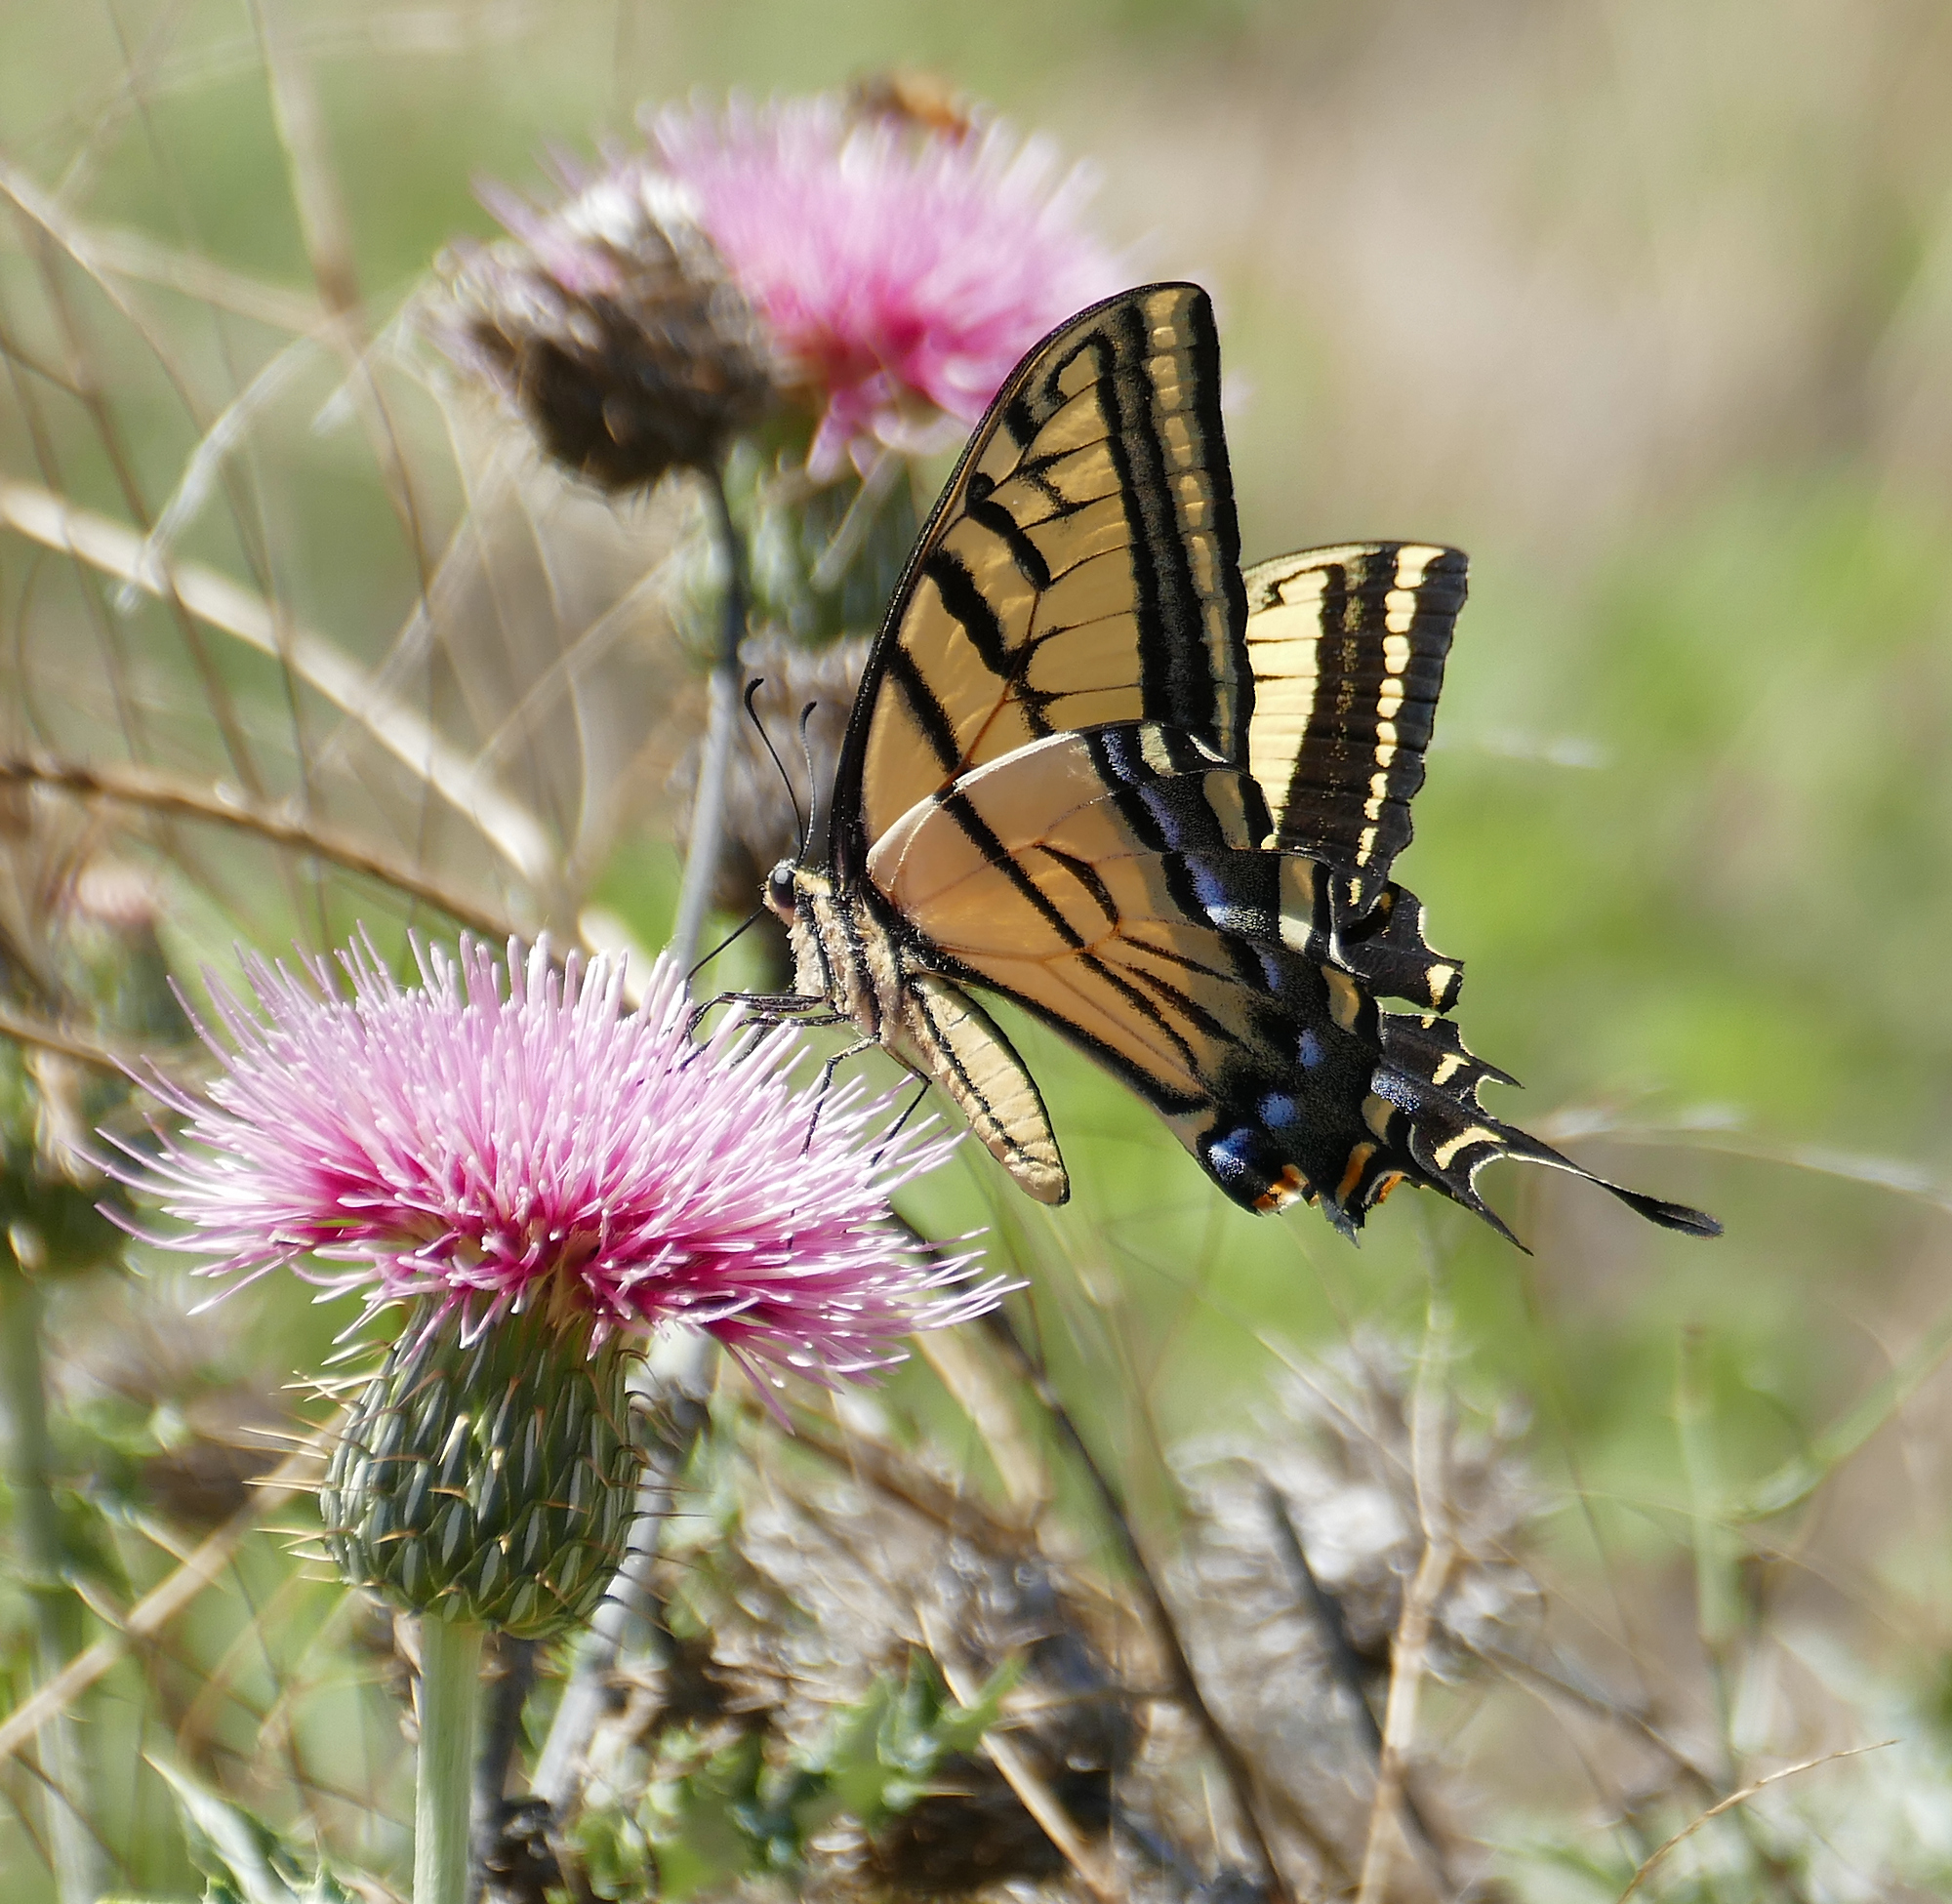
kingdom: Animalia
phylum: Arthropoda
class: Insecta
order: Lepidoptera
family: Papilionidae
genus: Papilio
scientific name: Papilio multicaudata
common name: Two-tailed tiger swallowtail
